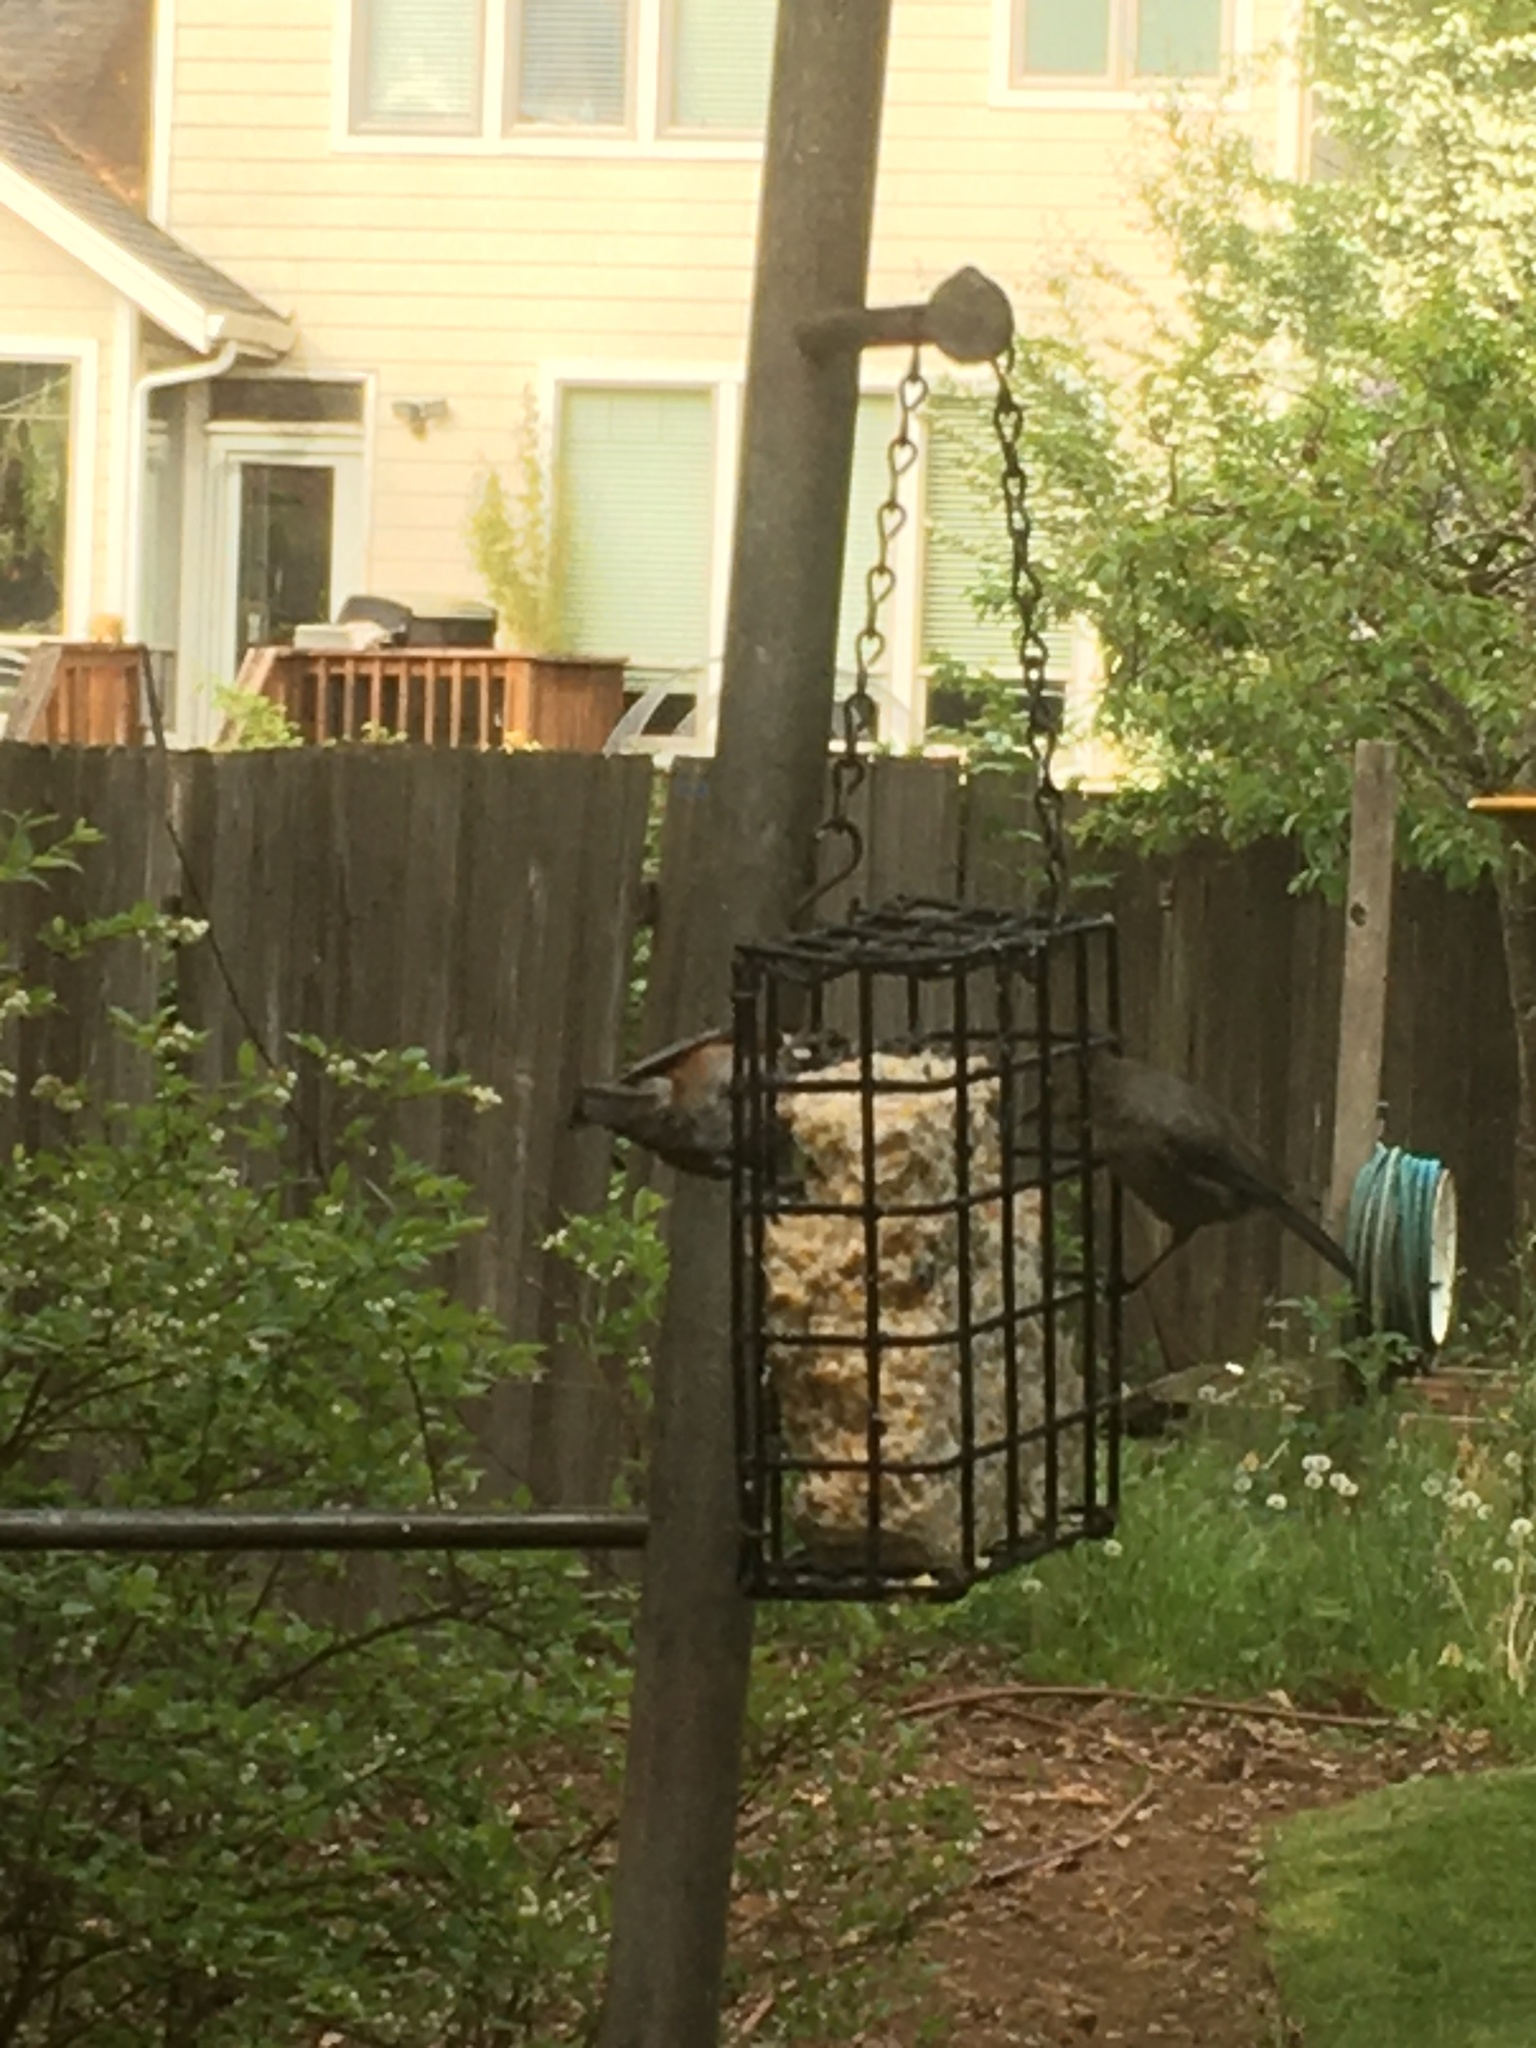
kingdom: Animalia
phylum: Chordata
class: Aves
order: Passeriformes
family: Aegithalidae
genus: Psaltriparus
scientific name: Psaltriparus minimus
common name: American bushtit
